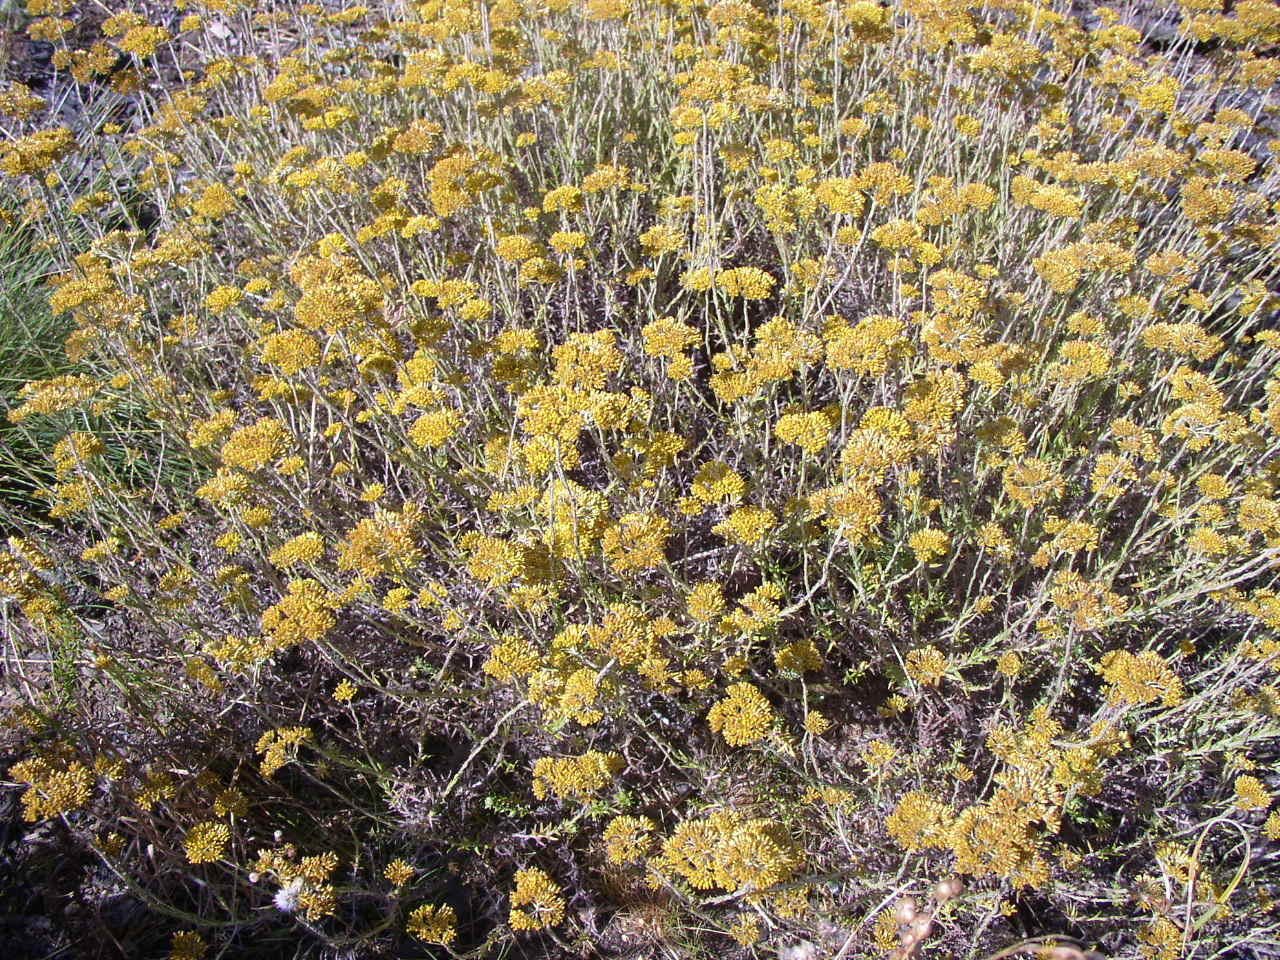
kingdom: Plantae
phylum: Tracheophyta
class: Magnoliopsida
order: Asterales
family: Asteraceae
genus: Helichrysum
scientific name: Helichrysum cymosum
